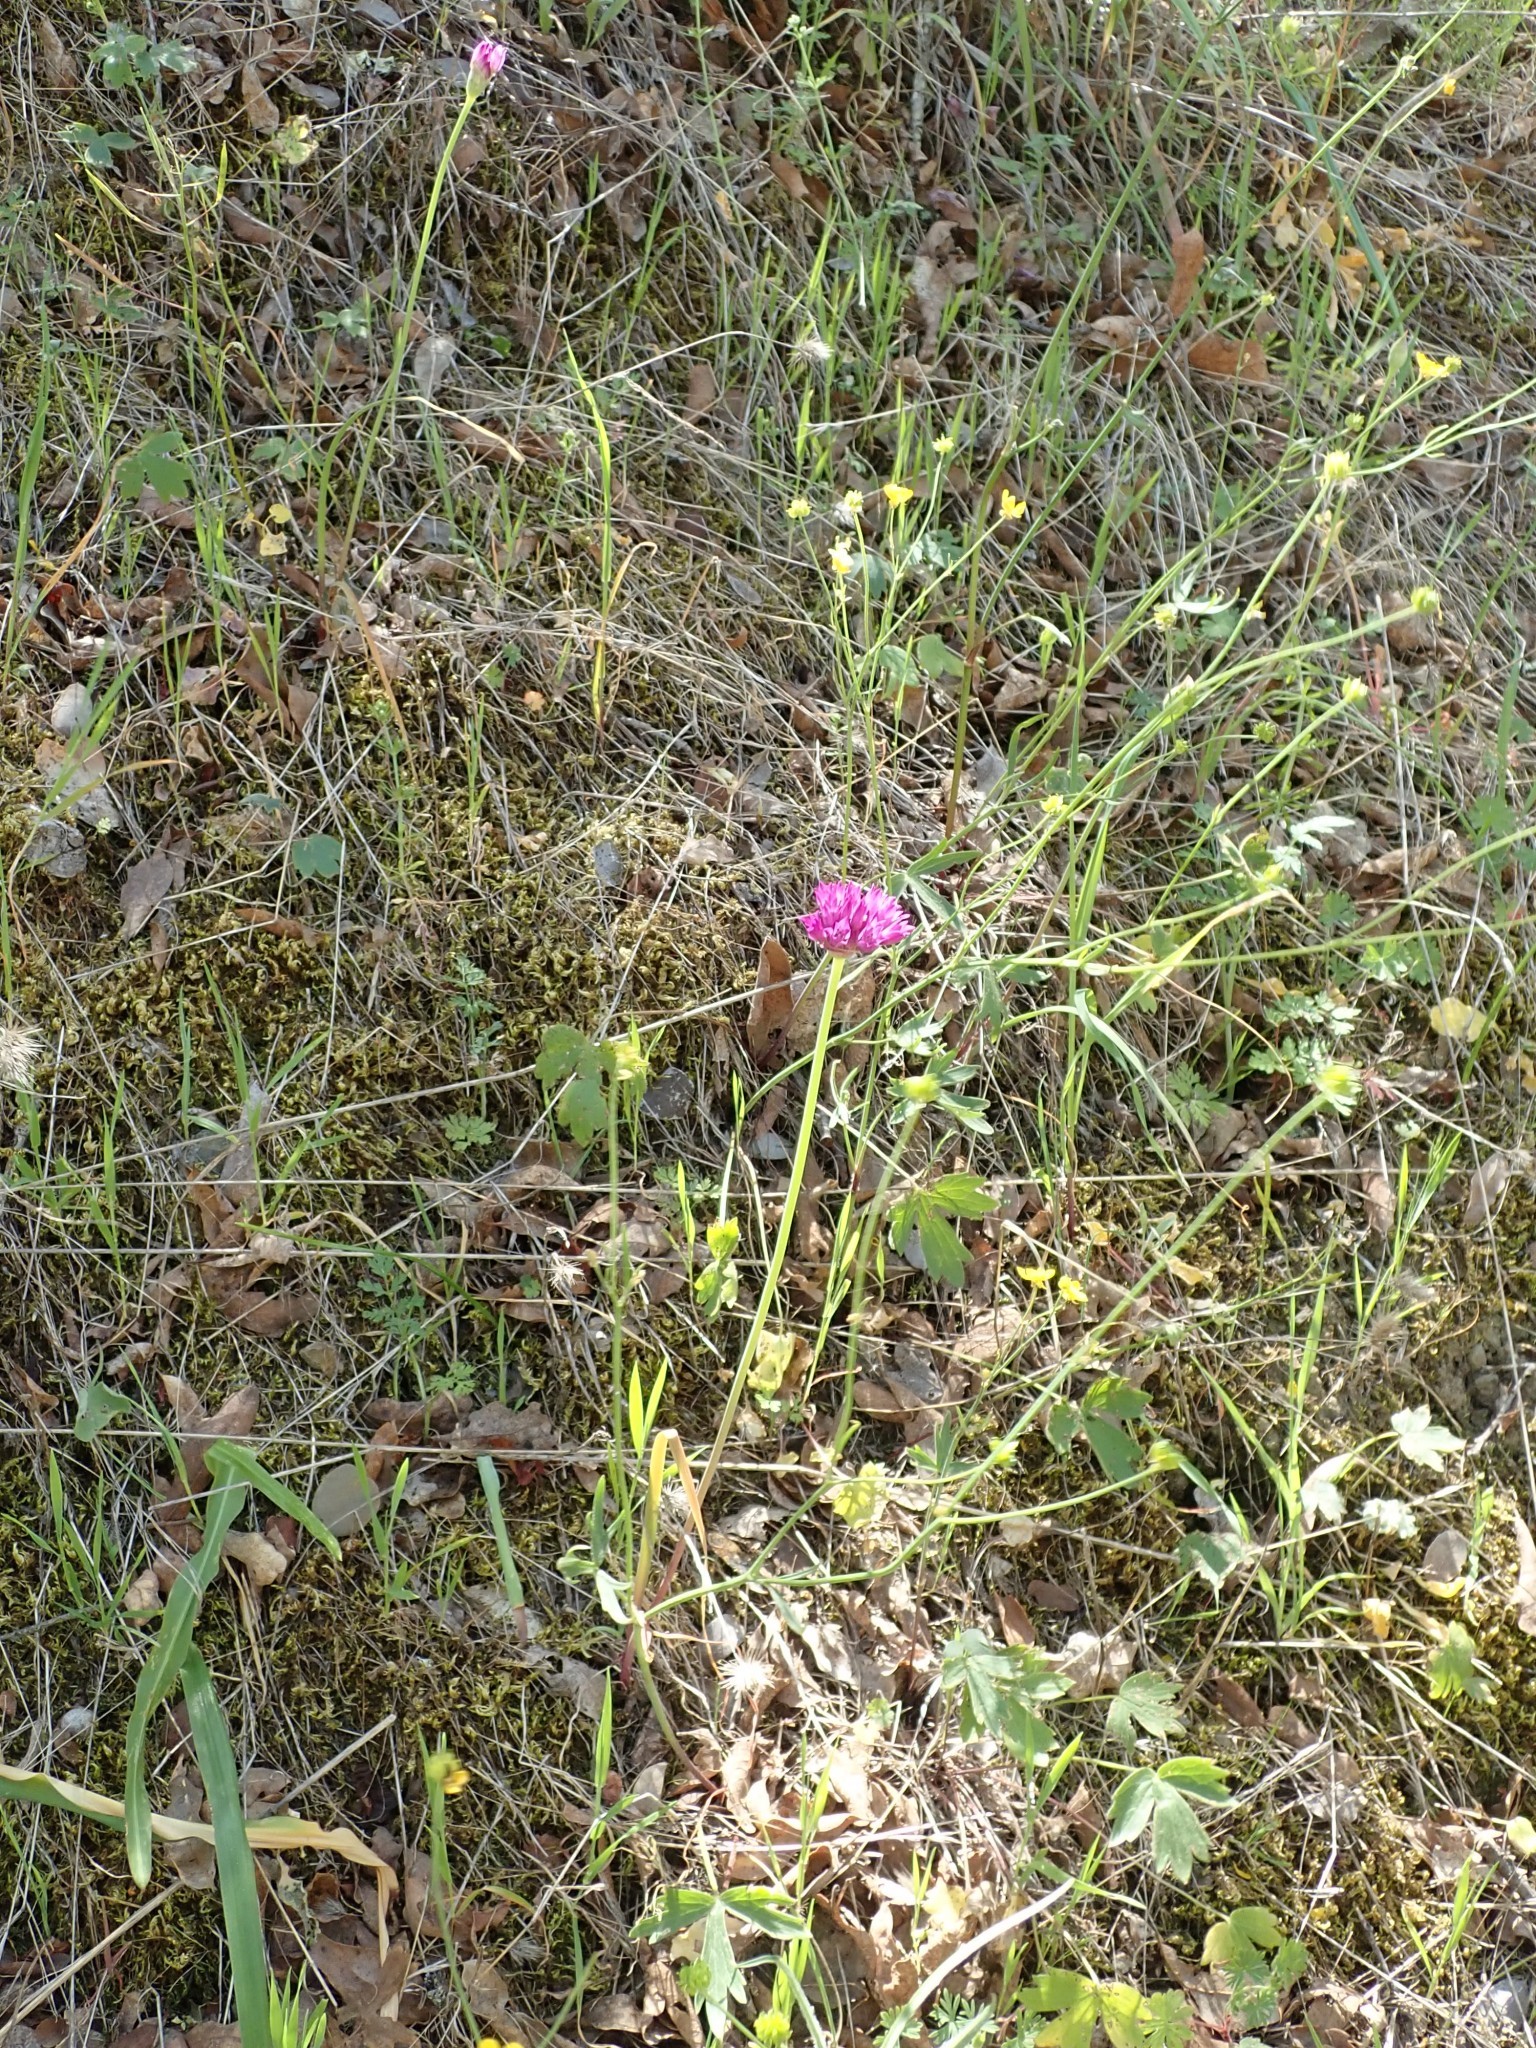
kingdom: Plantae
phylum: Tracheophyta
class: Liliopsida
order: Asparagales
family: Amaryllidaceae
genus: Allium
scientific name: Allium serra
